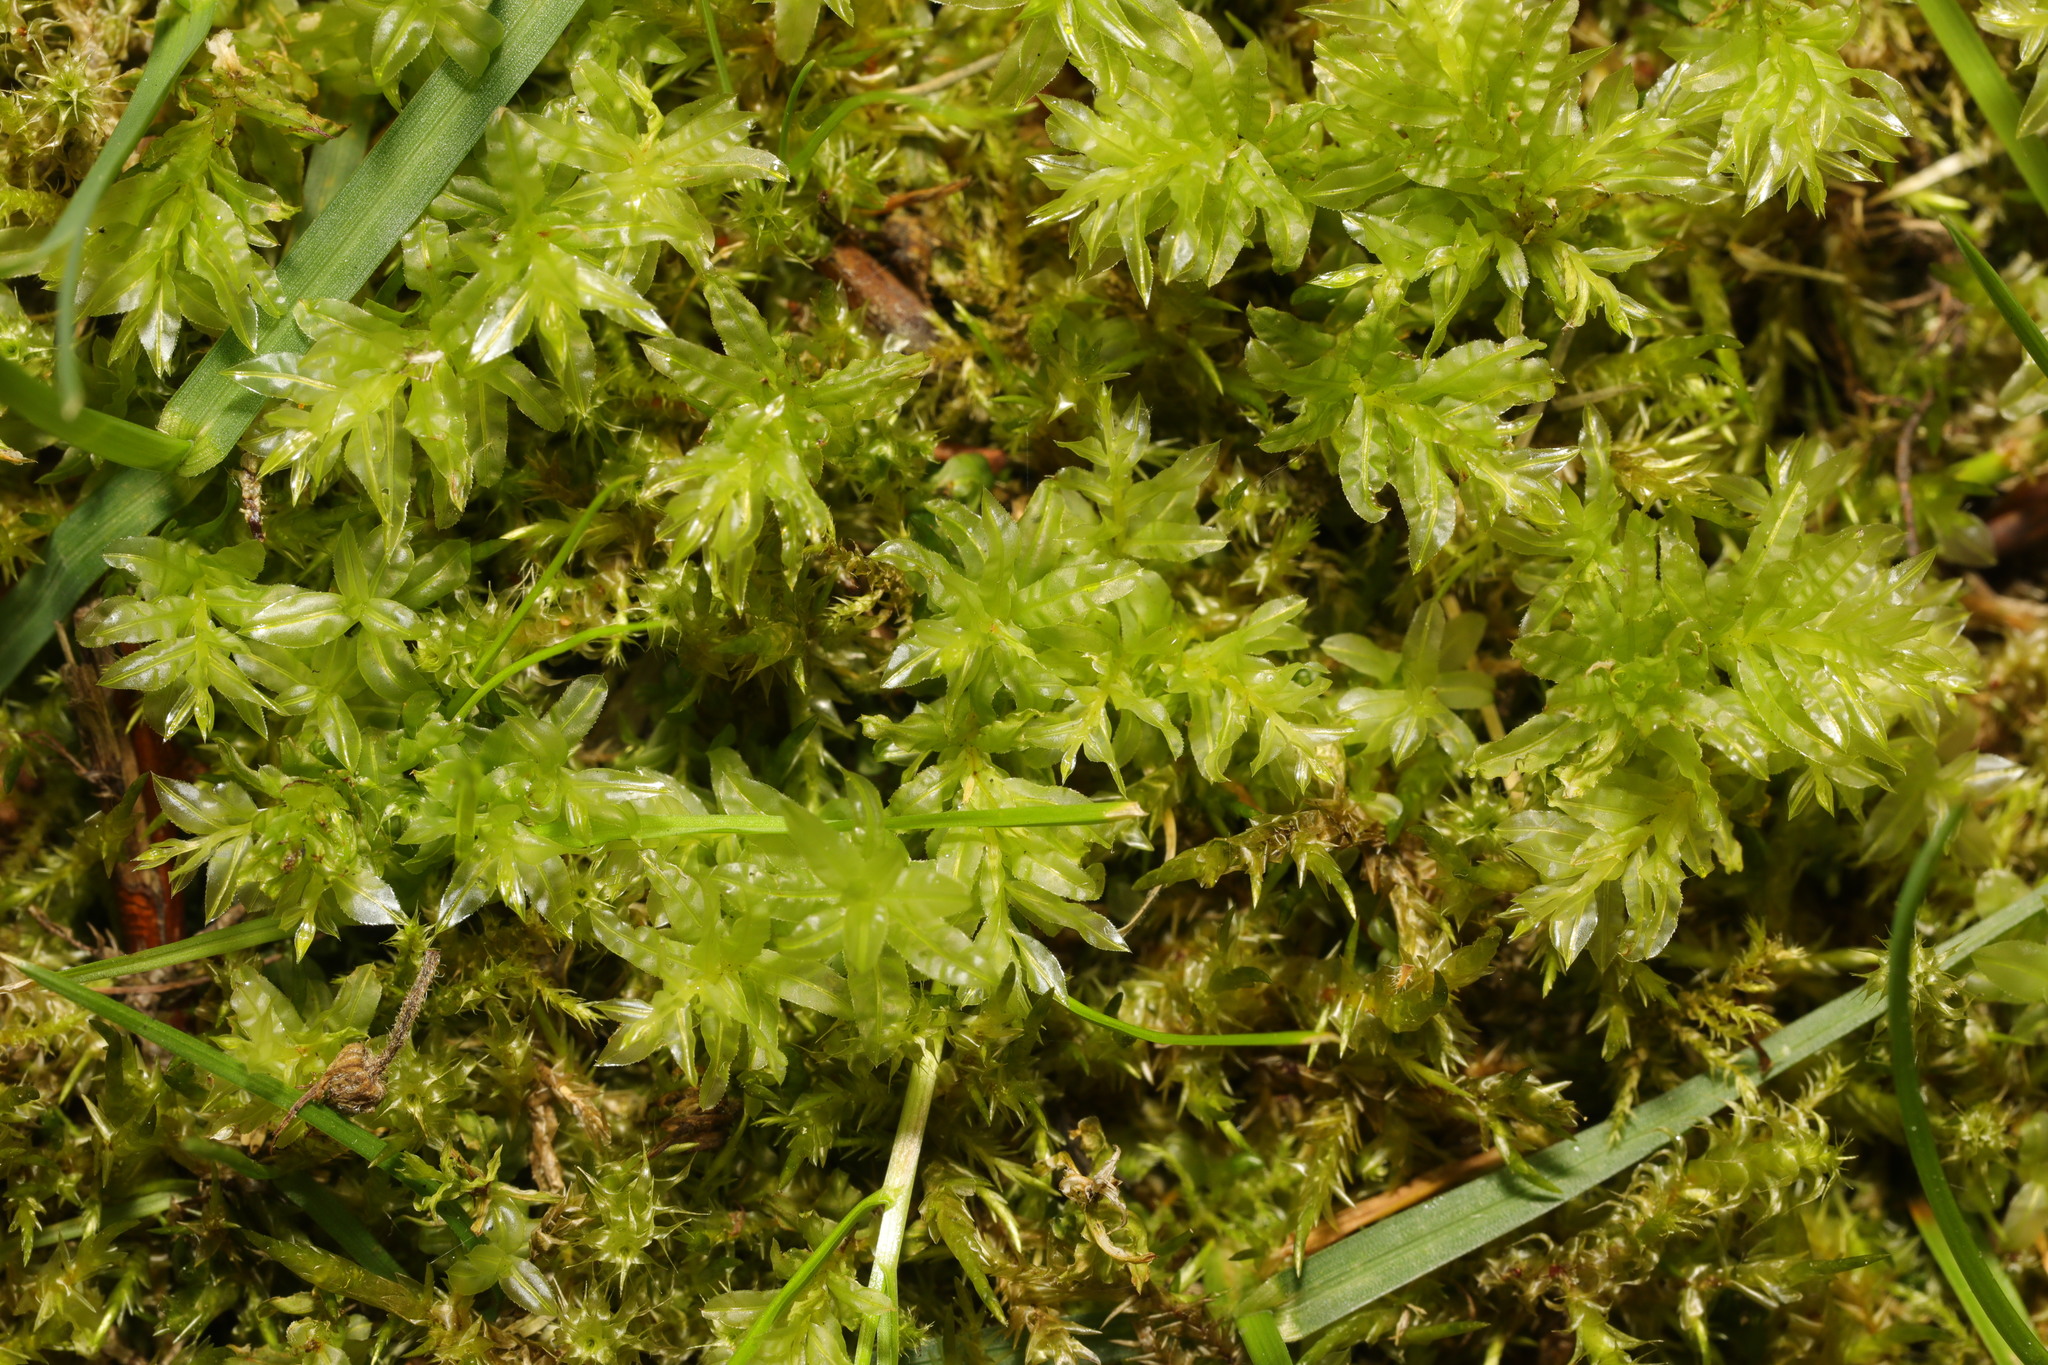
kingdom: Plantae
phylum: Bryophyta
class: Bryopsida
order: Bryales
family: Mniaceae
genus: Plagiomnium
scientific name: Plagiomnium undulatum
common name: Hart's-tongue thyme-moss
